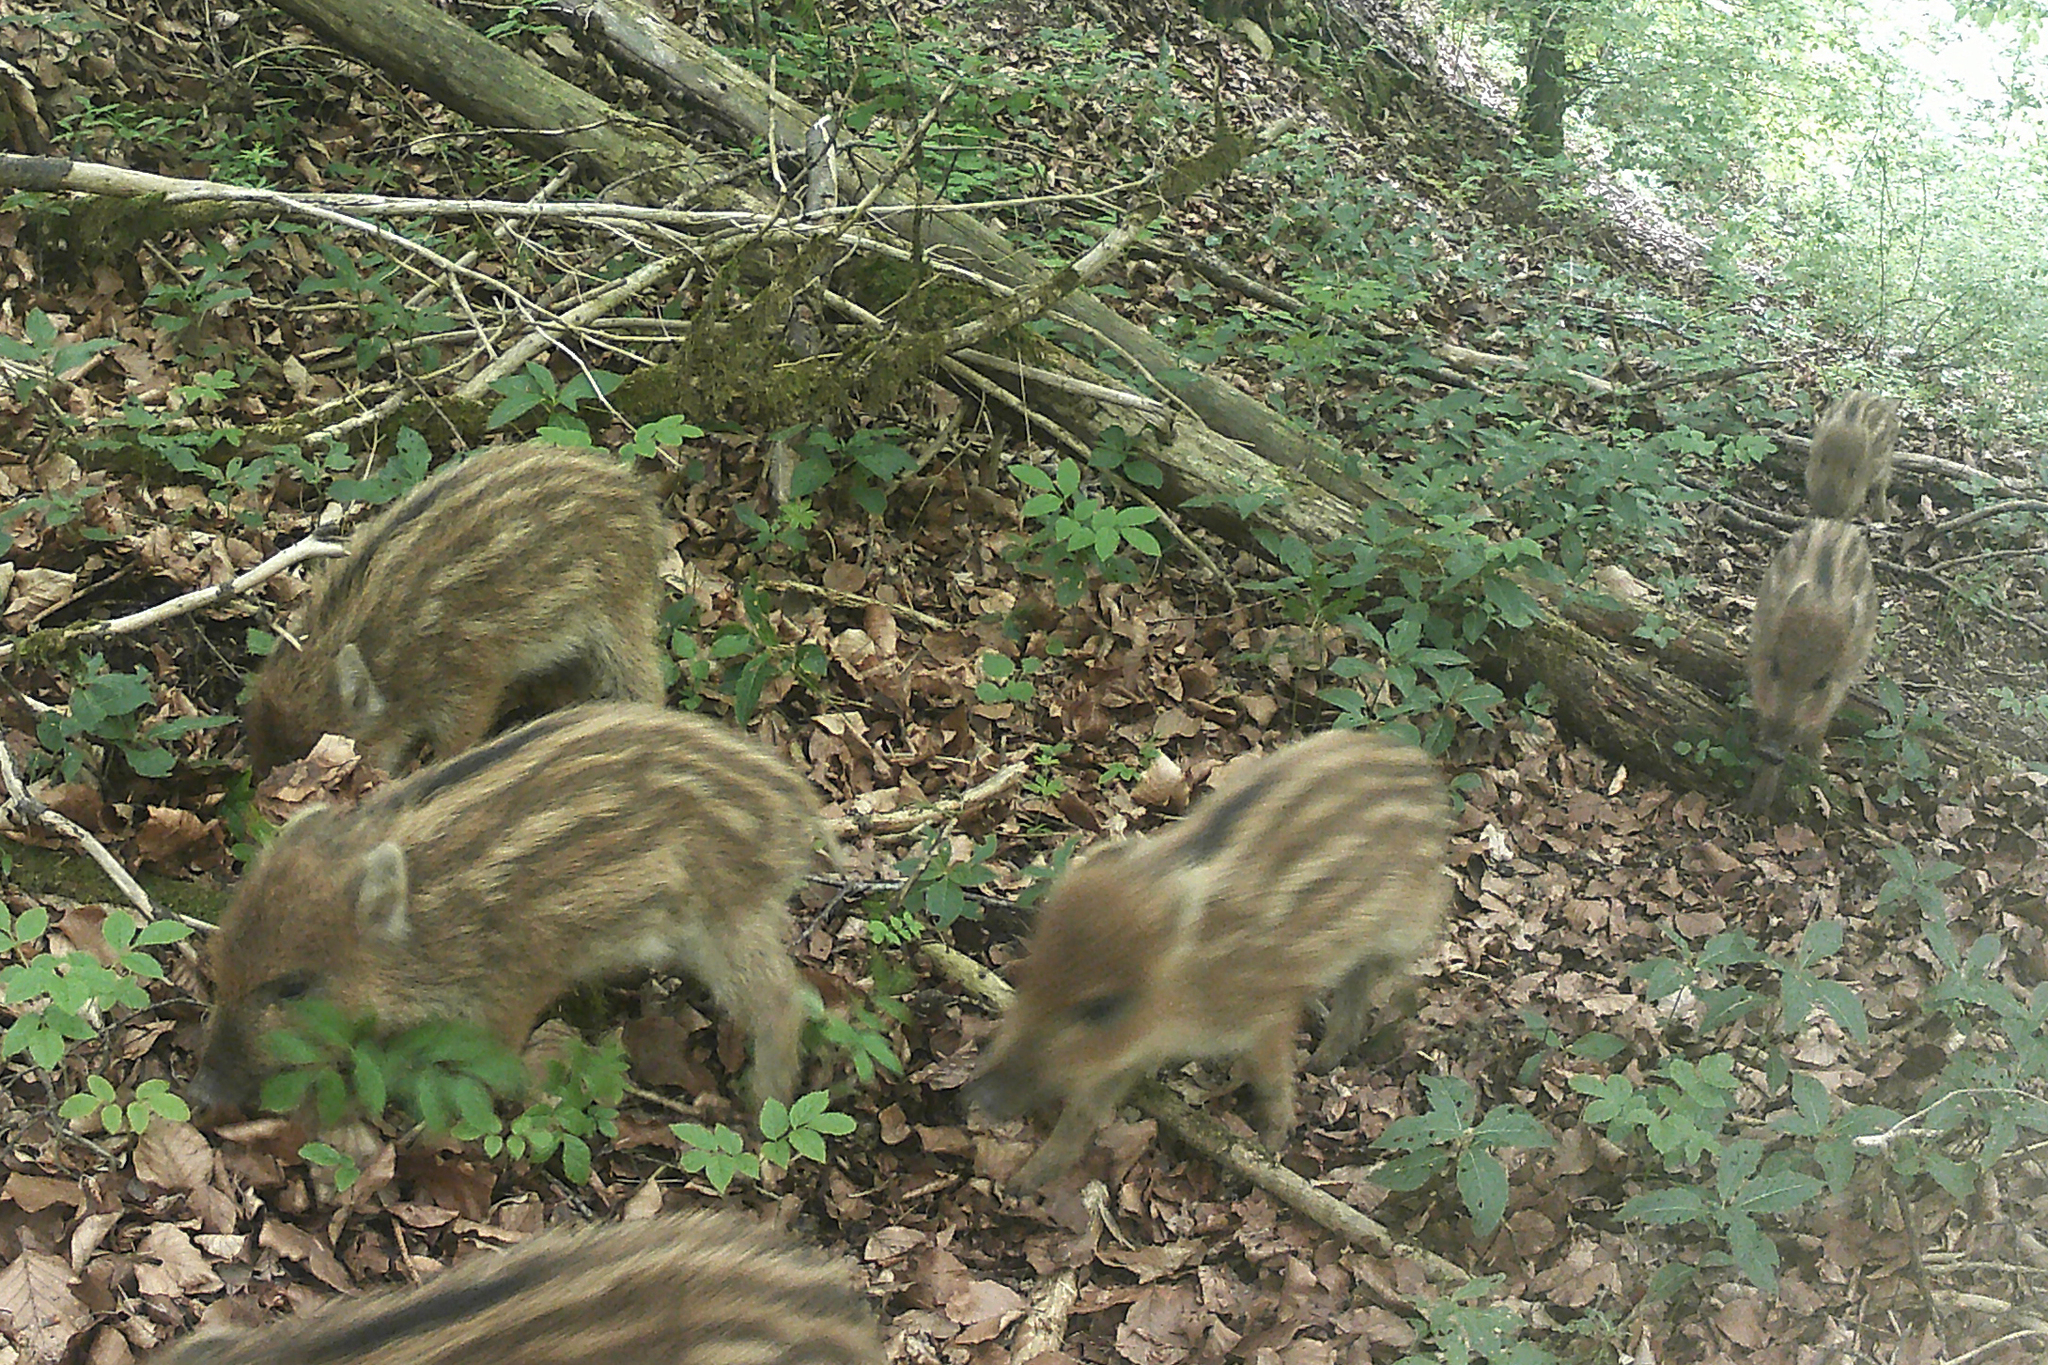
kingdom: Animalia
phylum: Chordata
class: Mammalia
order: Artiodactyla
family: Suidae
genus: Sus
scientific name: Sus scrofa
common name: Wild boar
